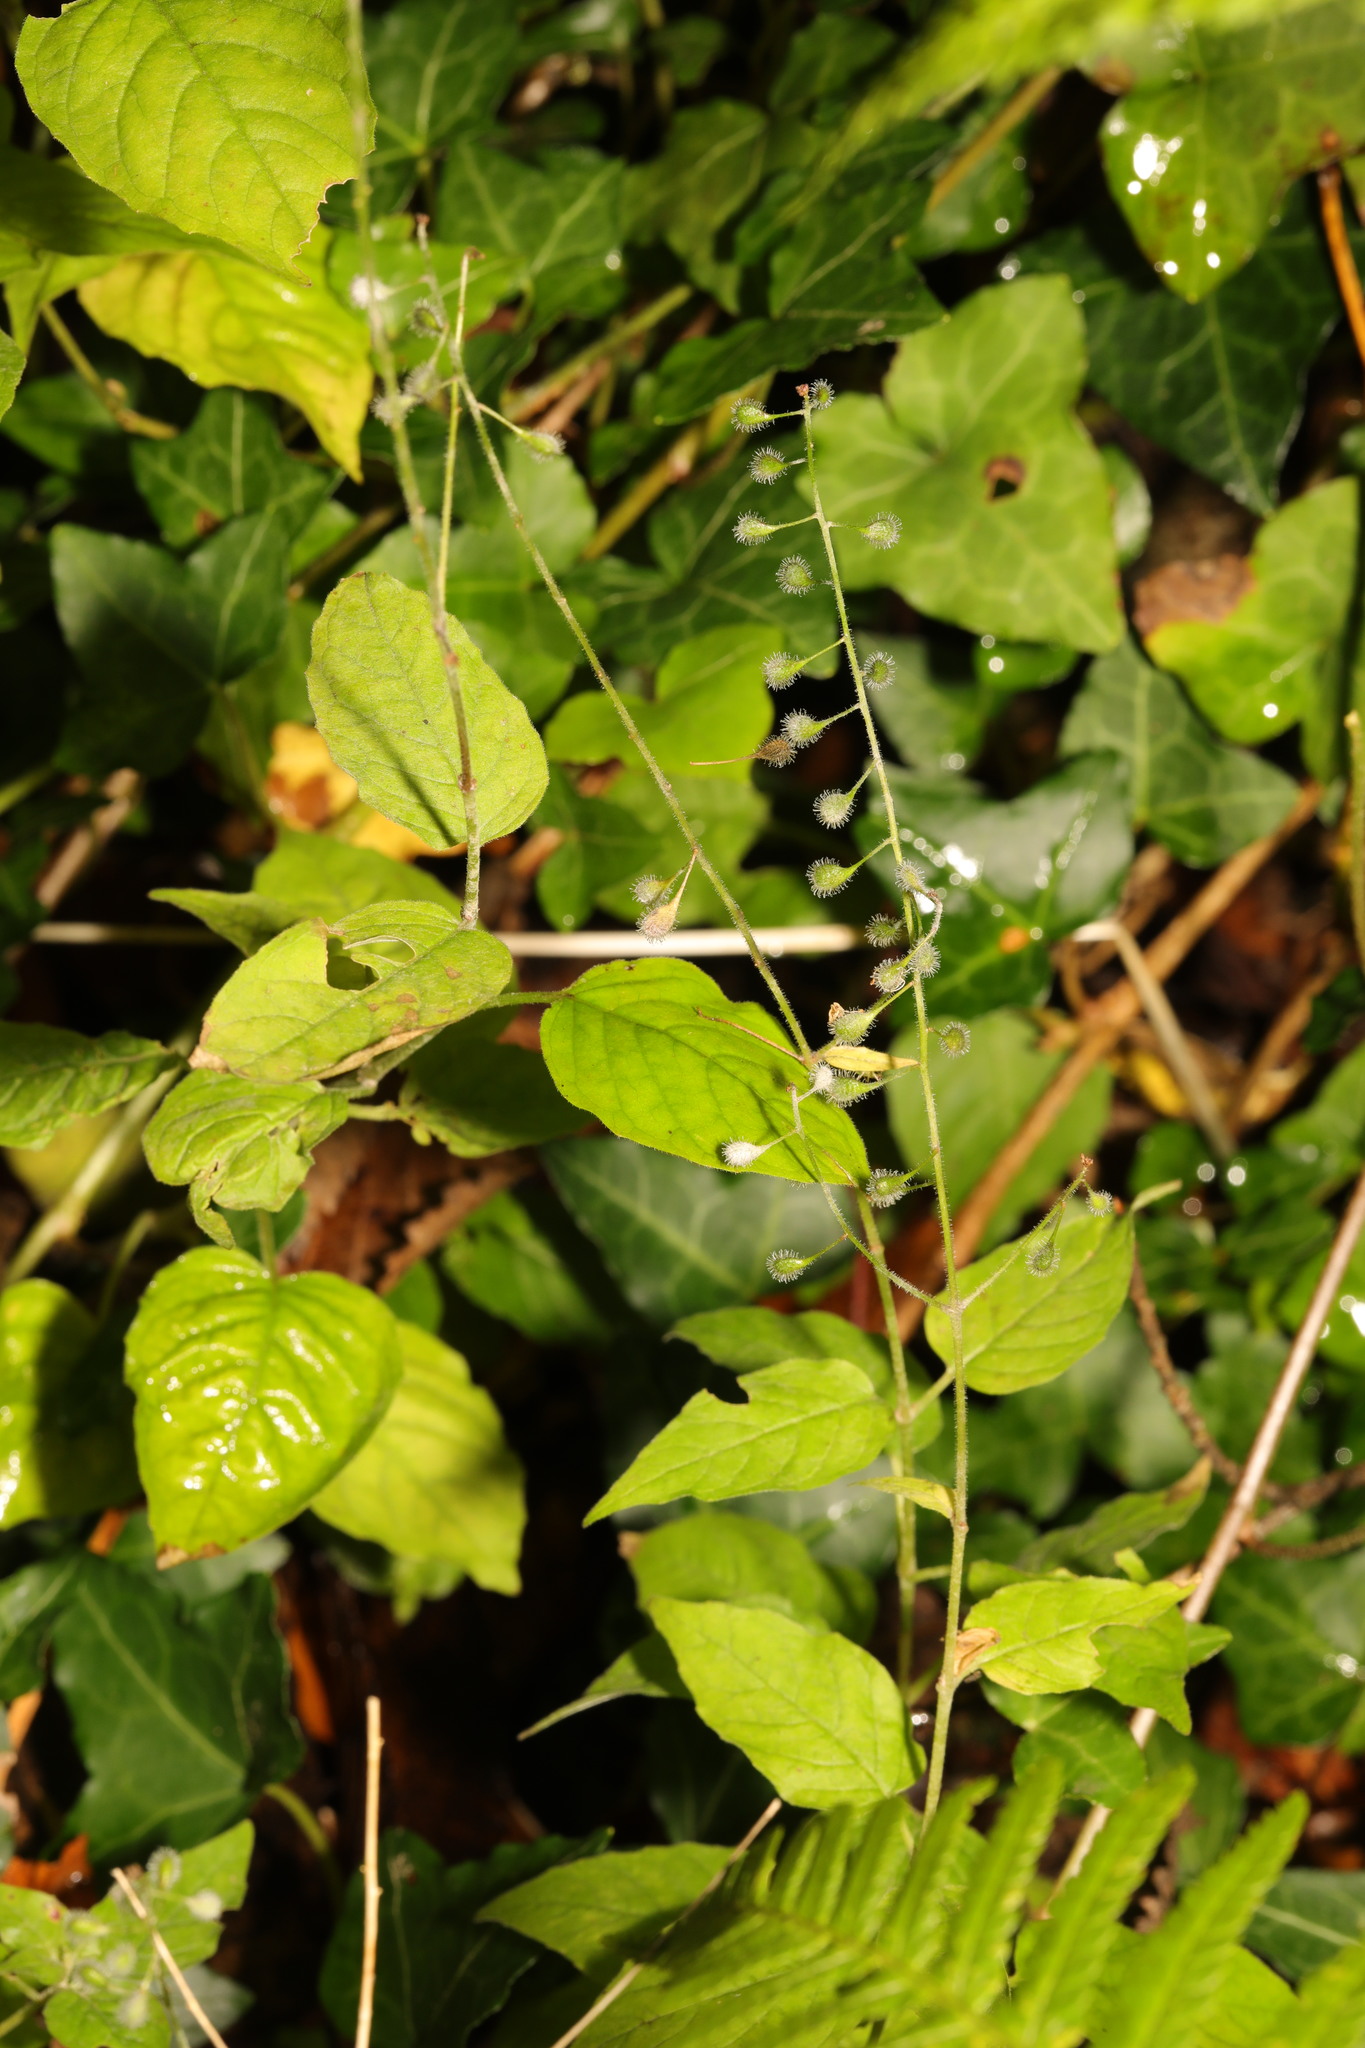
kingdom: Plantae
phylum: Tracheophyta
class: Magnoliopsida
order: Myrtales
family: Onagraceae
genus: Circaea
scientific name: Circaea lutetiana
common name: Enchanter's-nightshade
